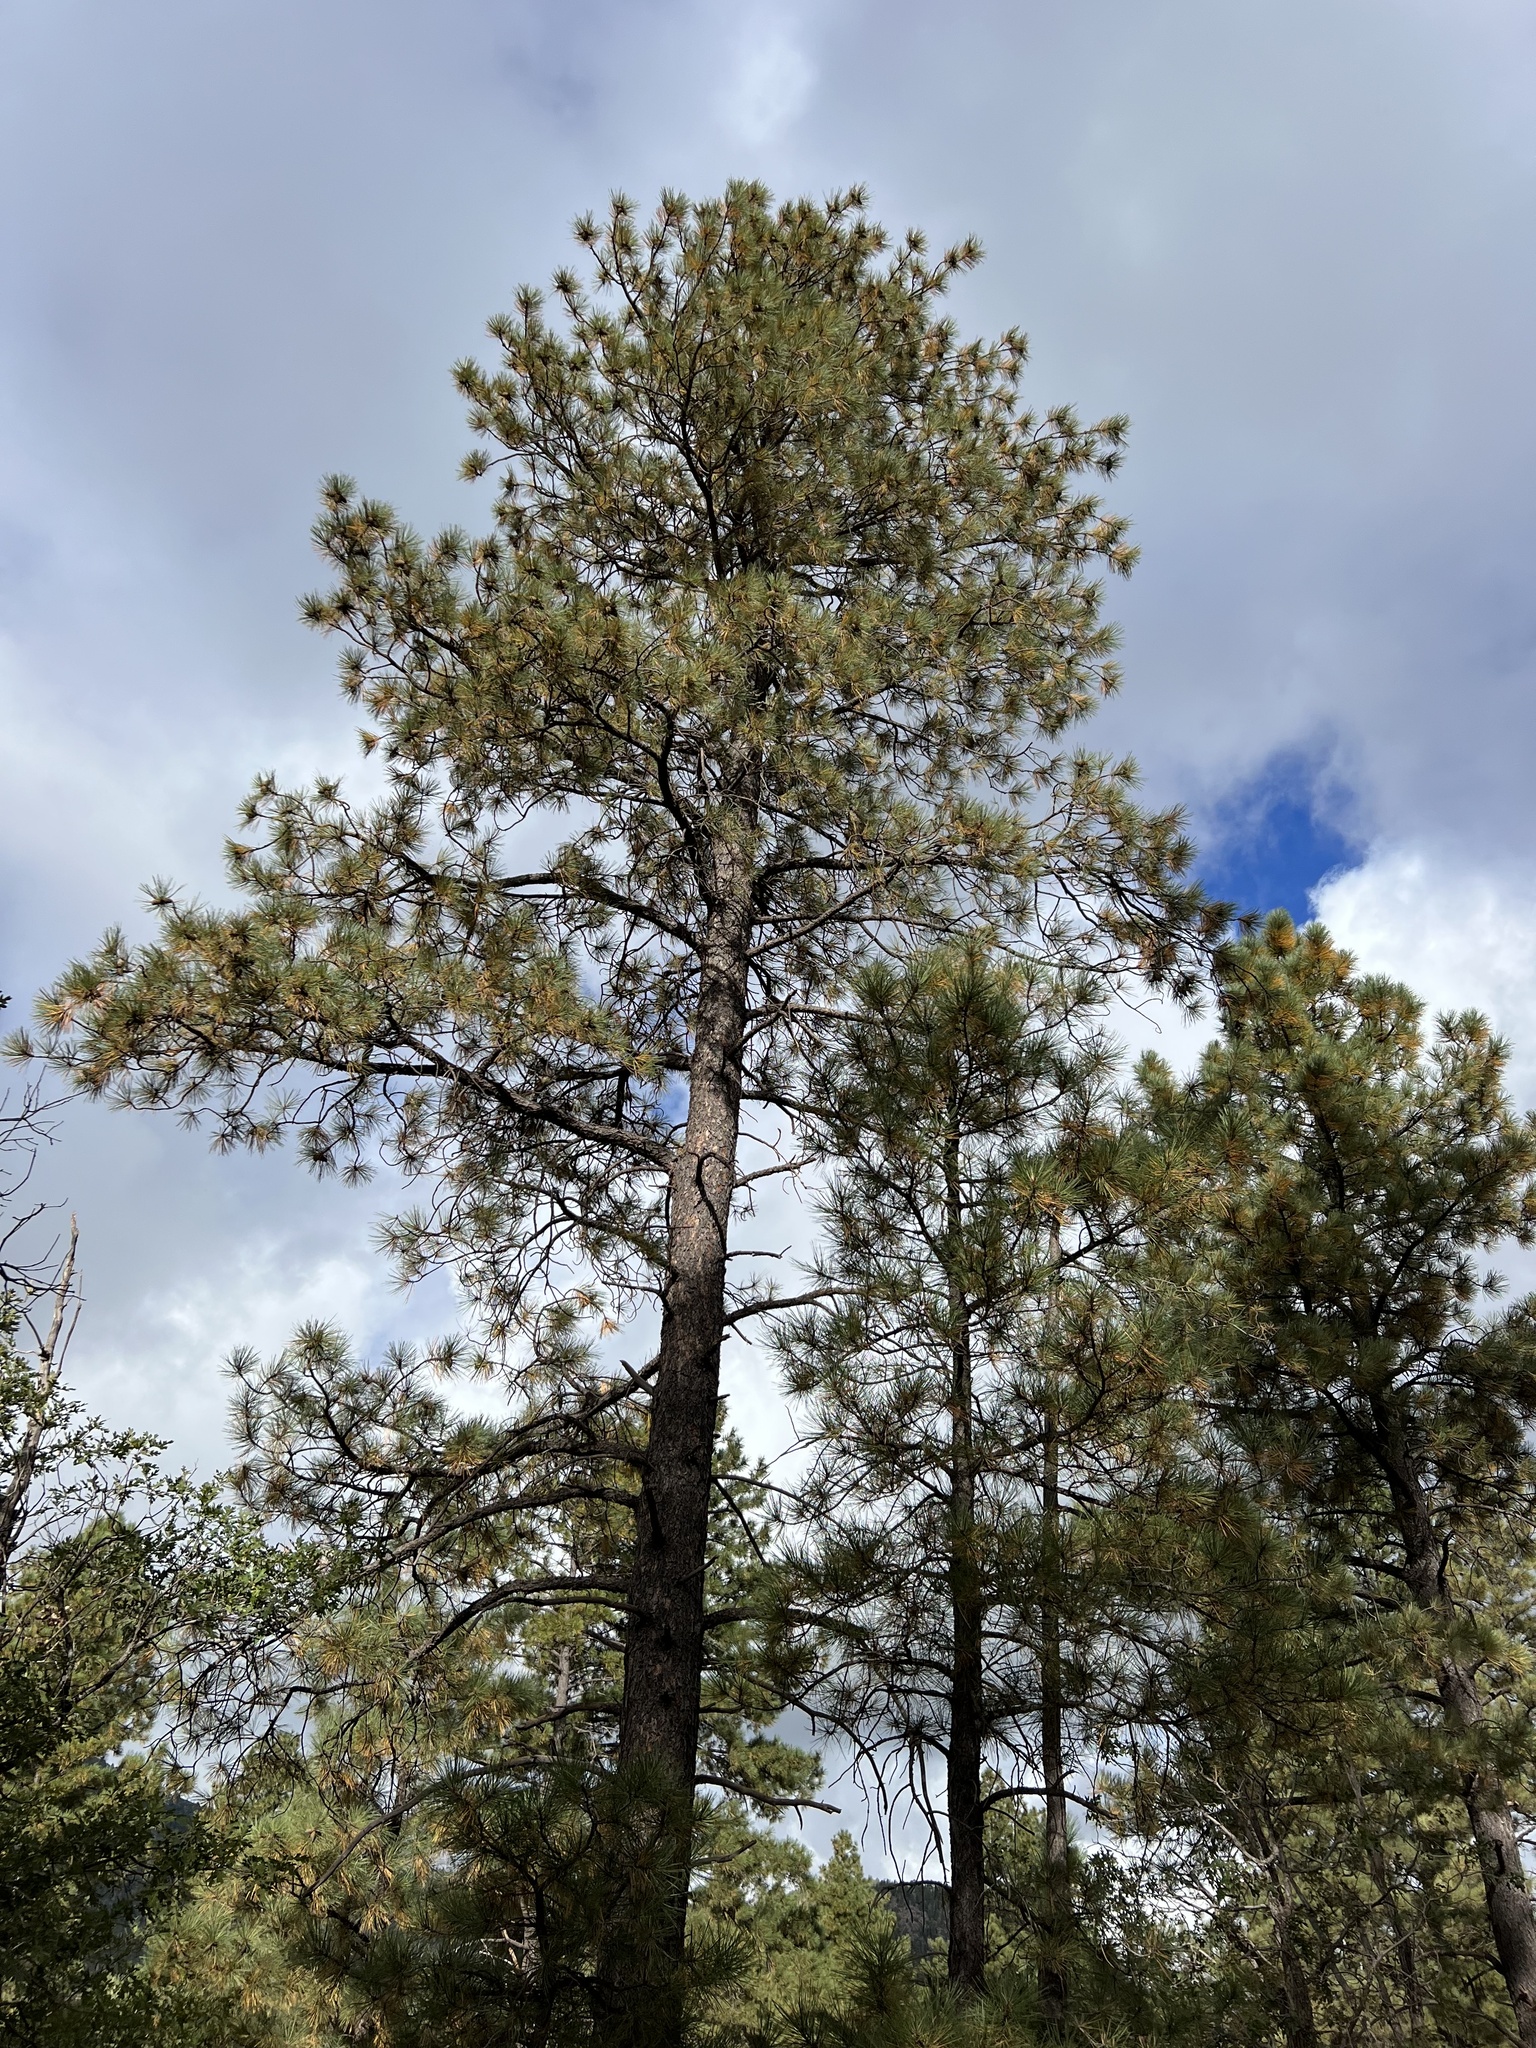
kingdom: Plantae
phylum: Tracheophyta
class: Pinopsida
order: Pinales
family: Pinaceae
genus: Pinus
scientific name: Pinus ponderosa
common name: Western yellow-pine
